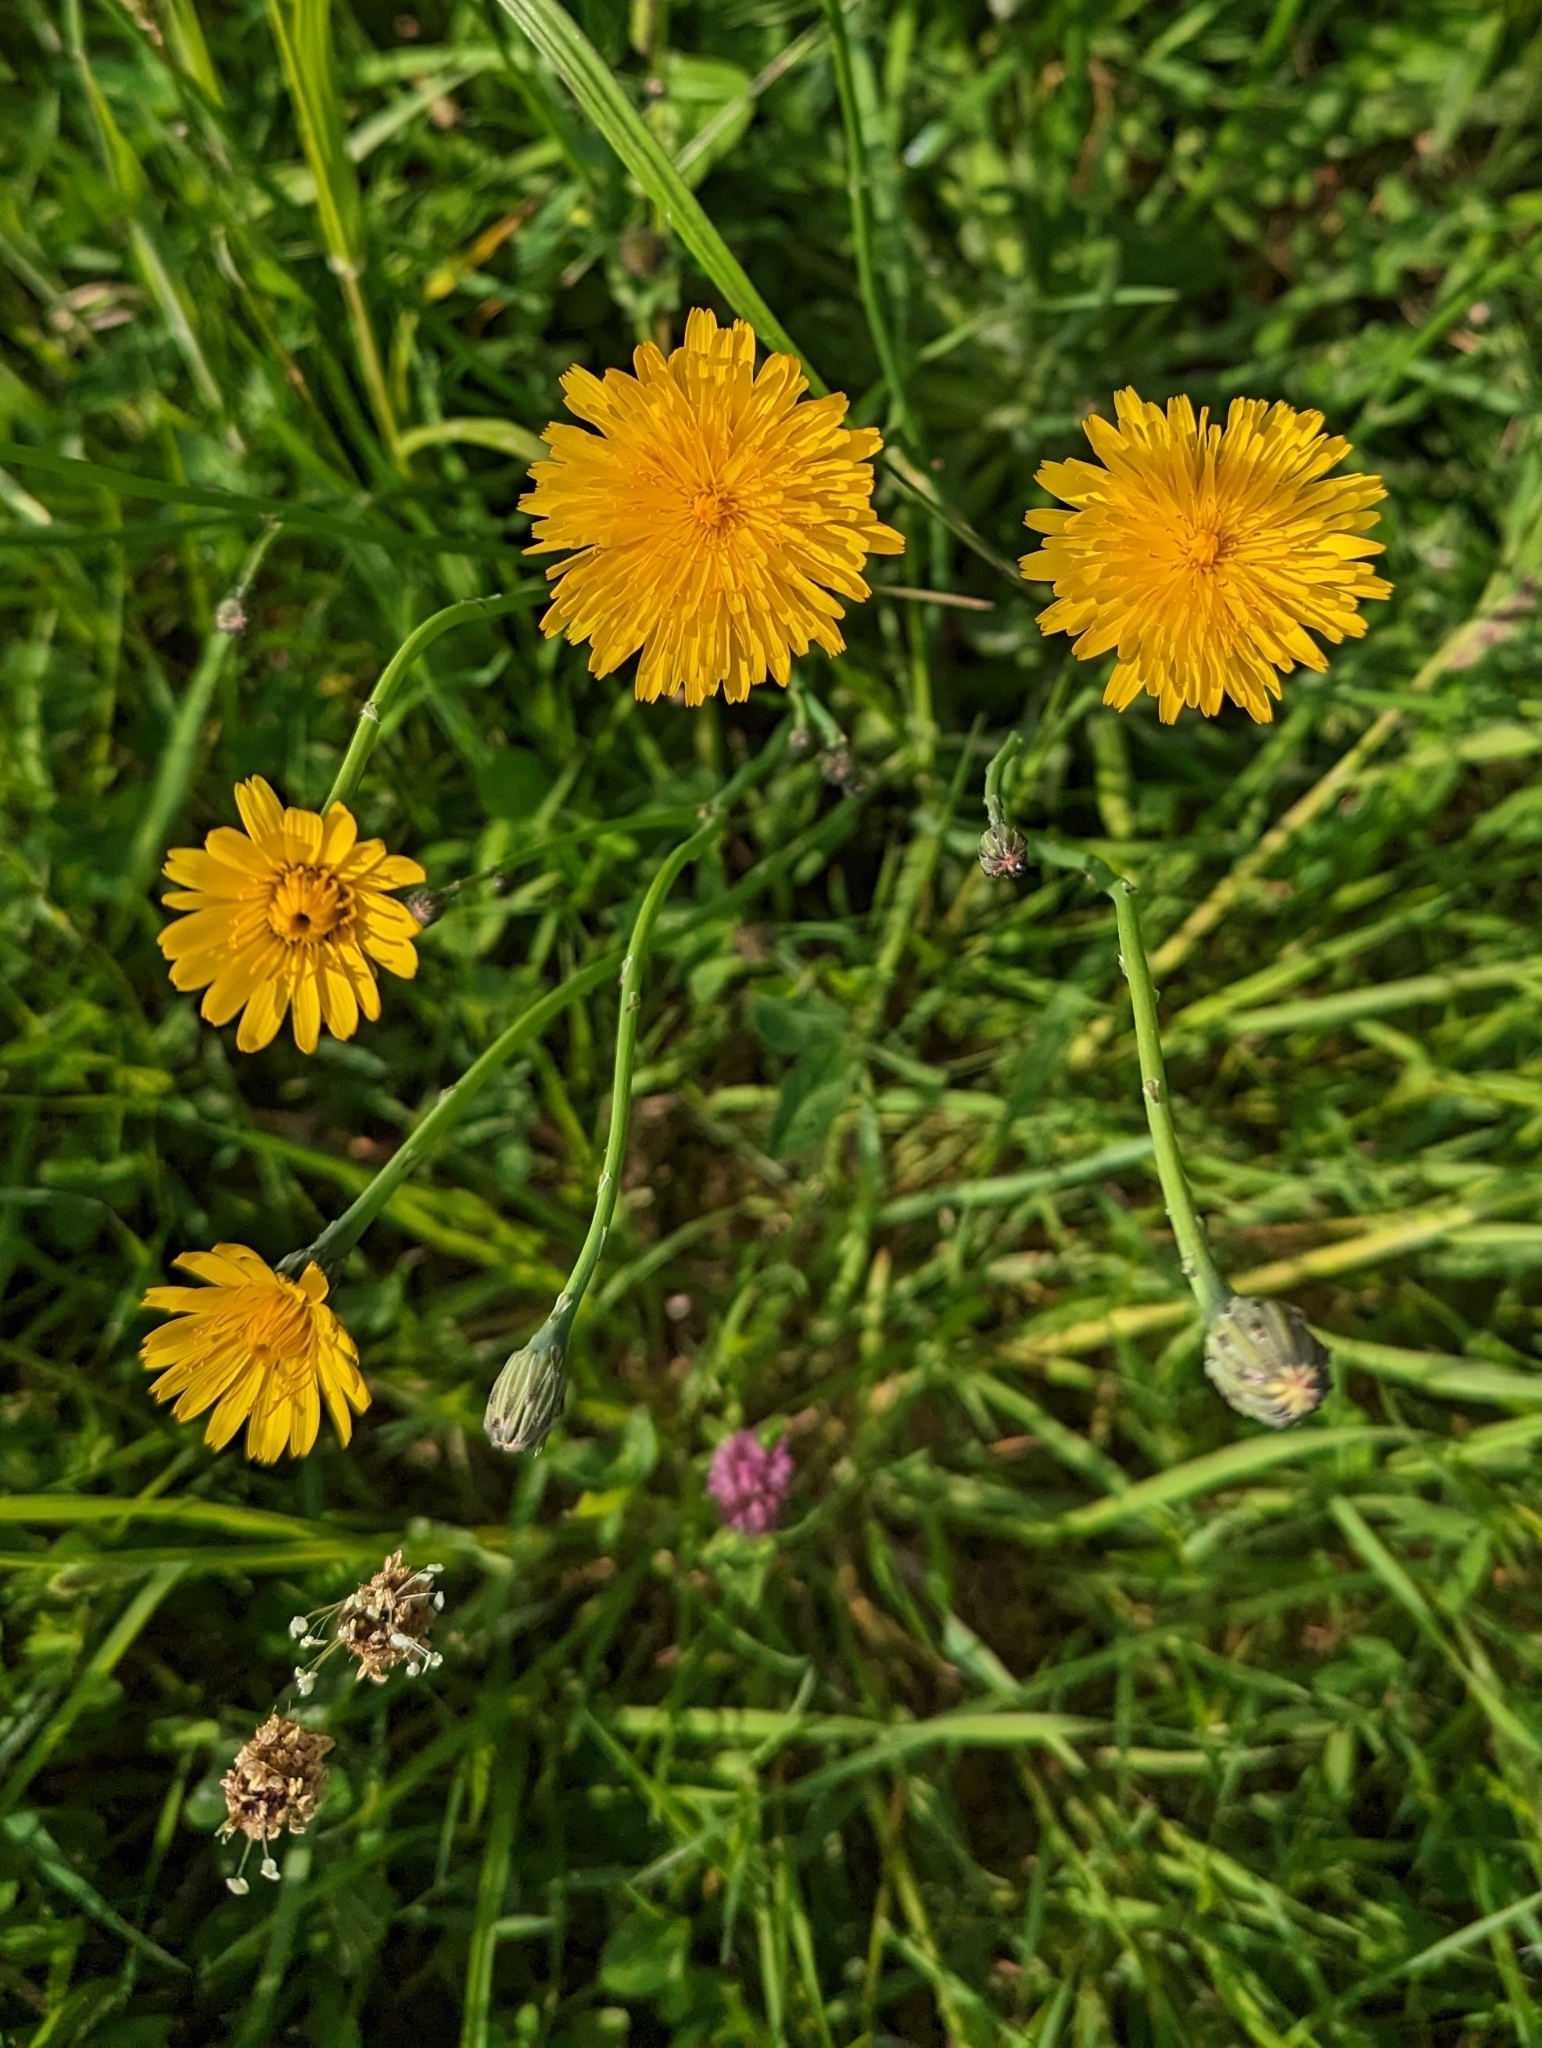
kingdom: Plantae
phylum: Tracheophyta
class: Magnoliopsida
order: Asterales
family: Asteraceae
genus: Hypochaeris
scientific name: Hypochaeris radicata
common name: Flatweed
